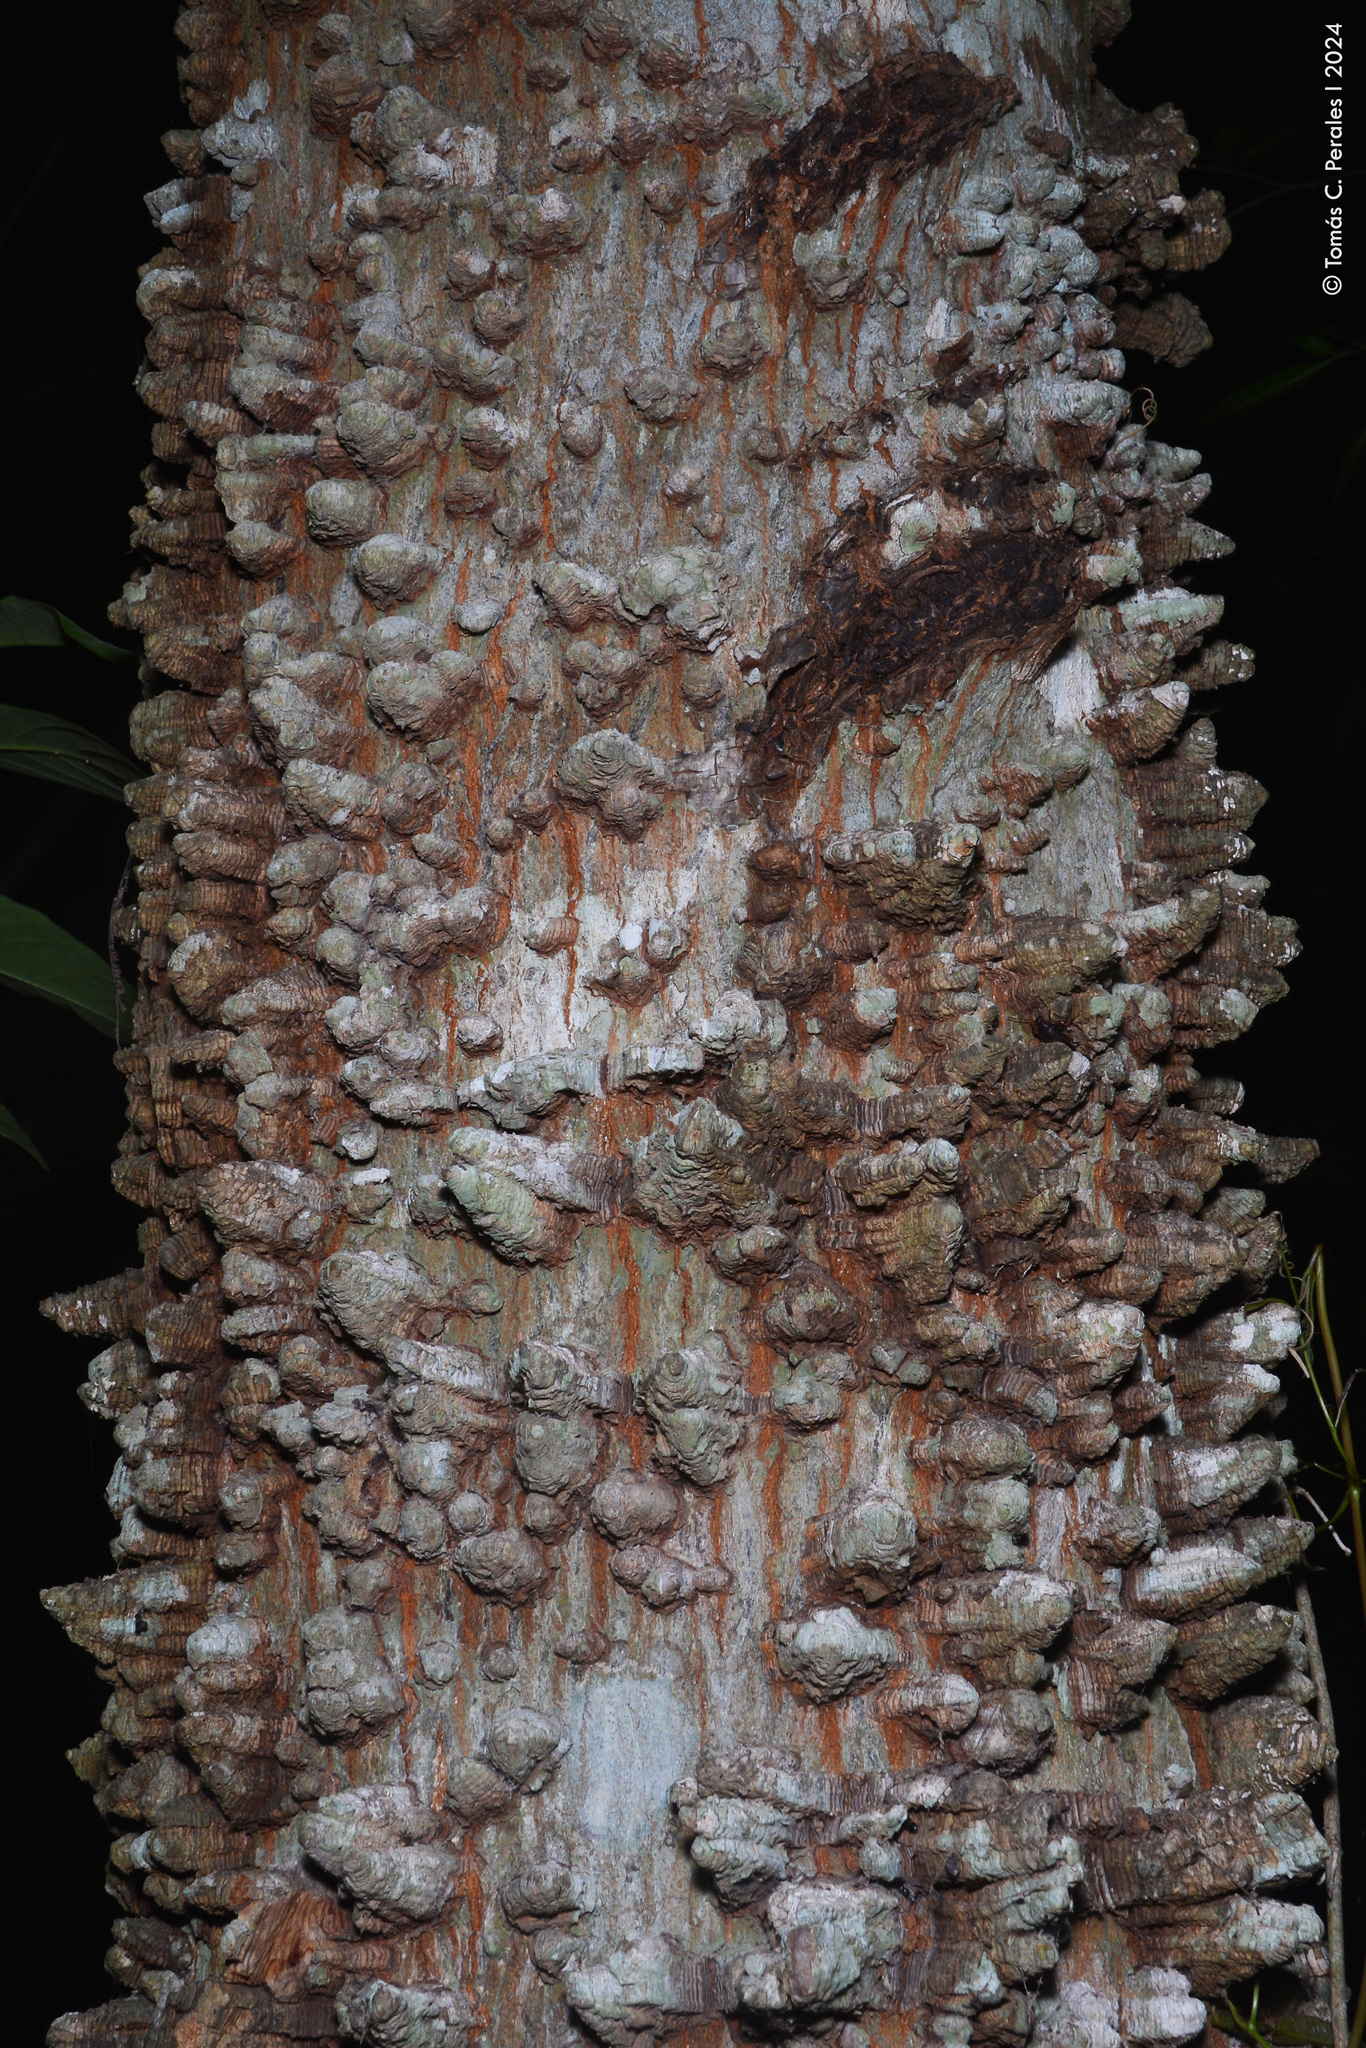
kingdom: Plantae
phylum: Tracheophyta
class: Magnoliopsida
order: Fabales
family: Fabaceae
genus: Anadenanthera
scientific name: Anadenanthera colubrina
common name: Curupay
